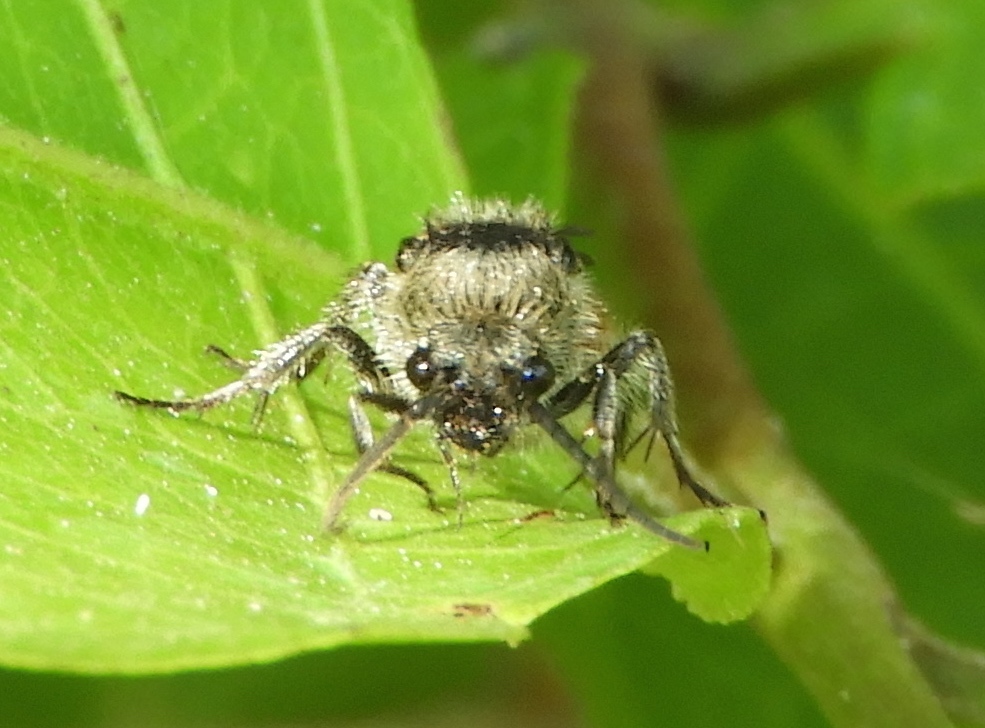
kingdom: Animalia
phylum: Arthropoda
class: Insecta
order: Hymenoptera
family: Mutillidae
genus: Dasymutilla
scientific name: Dasymutilla canella
